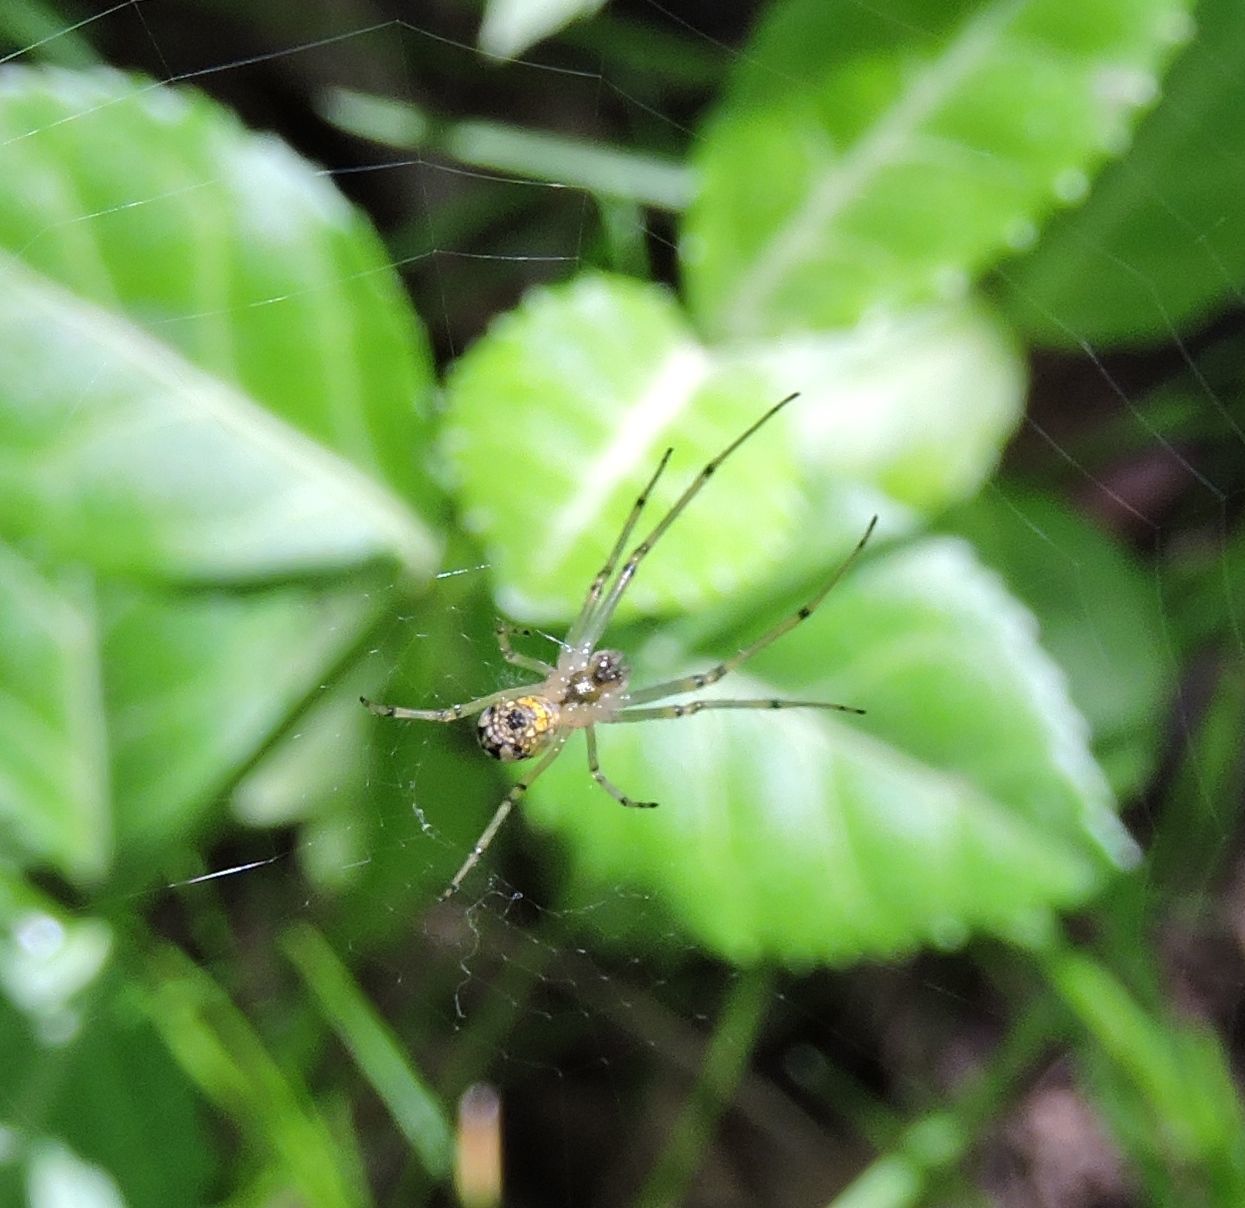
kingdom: Animalia
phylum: Arthropoda
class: Arachnida
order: Araneae
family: Tetragnathidae
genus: Leucauge
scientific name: Leucauge venusta
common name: Longjawed orb weavers
